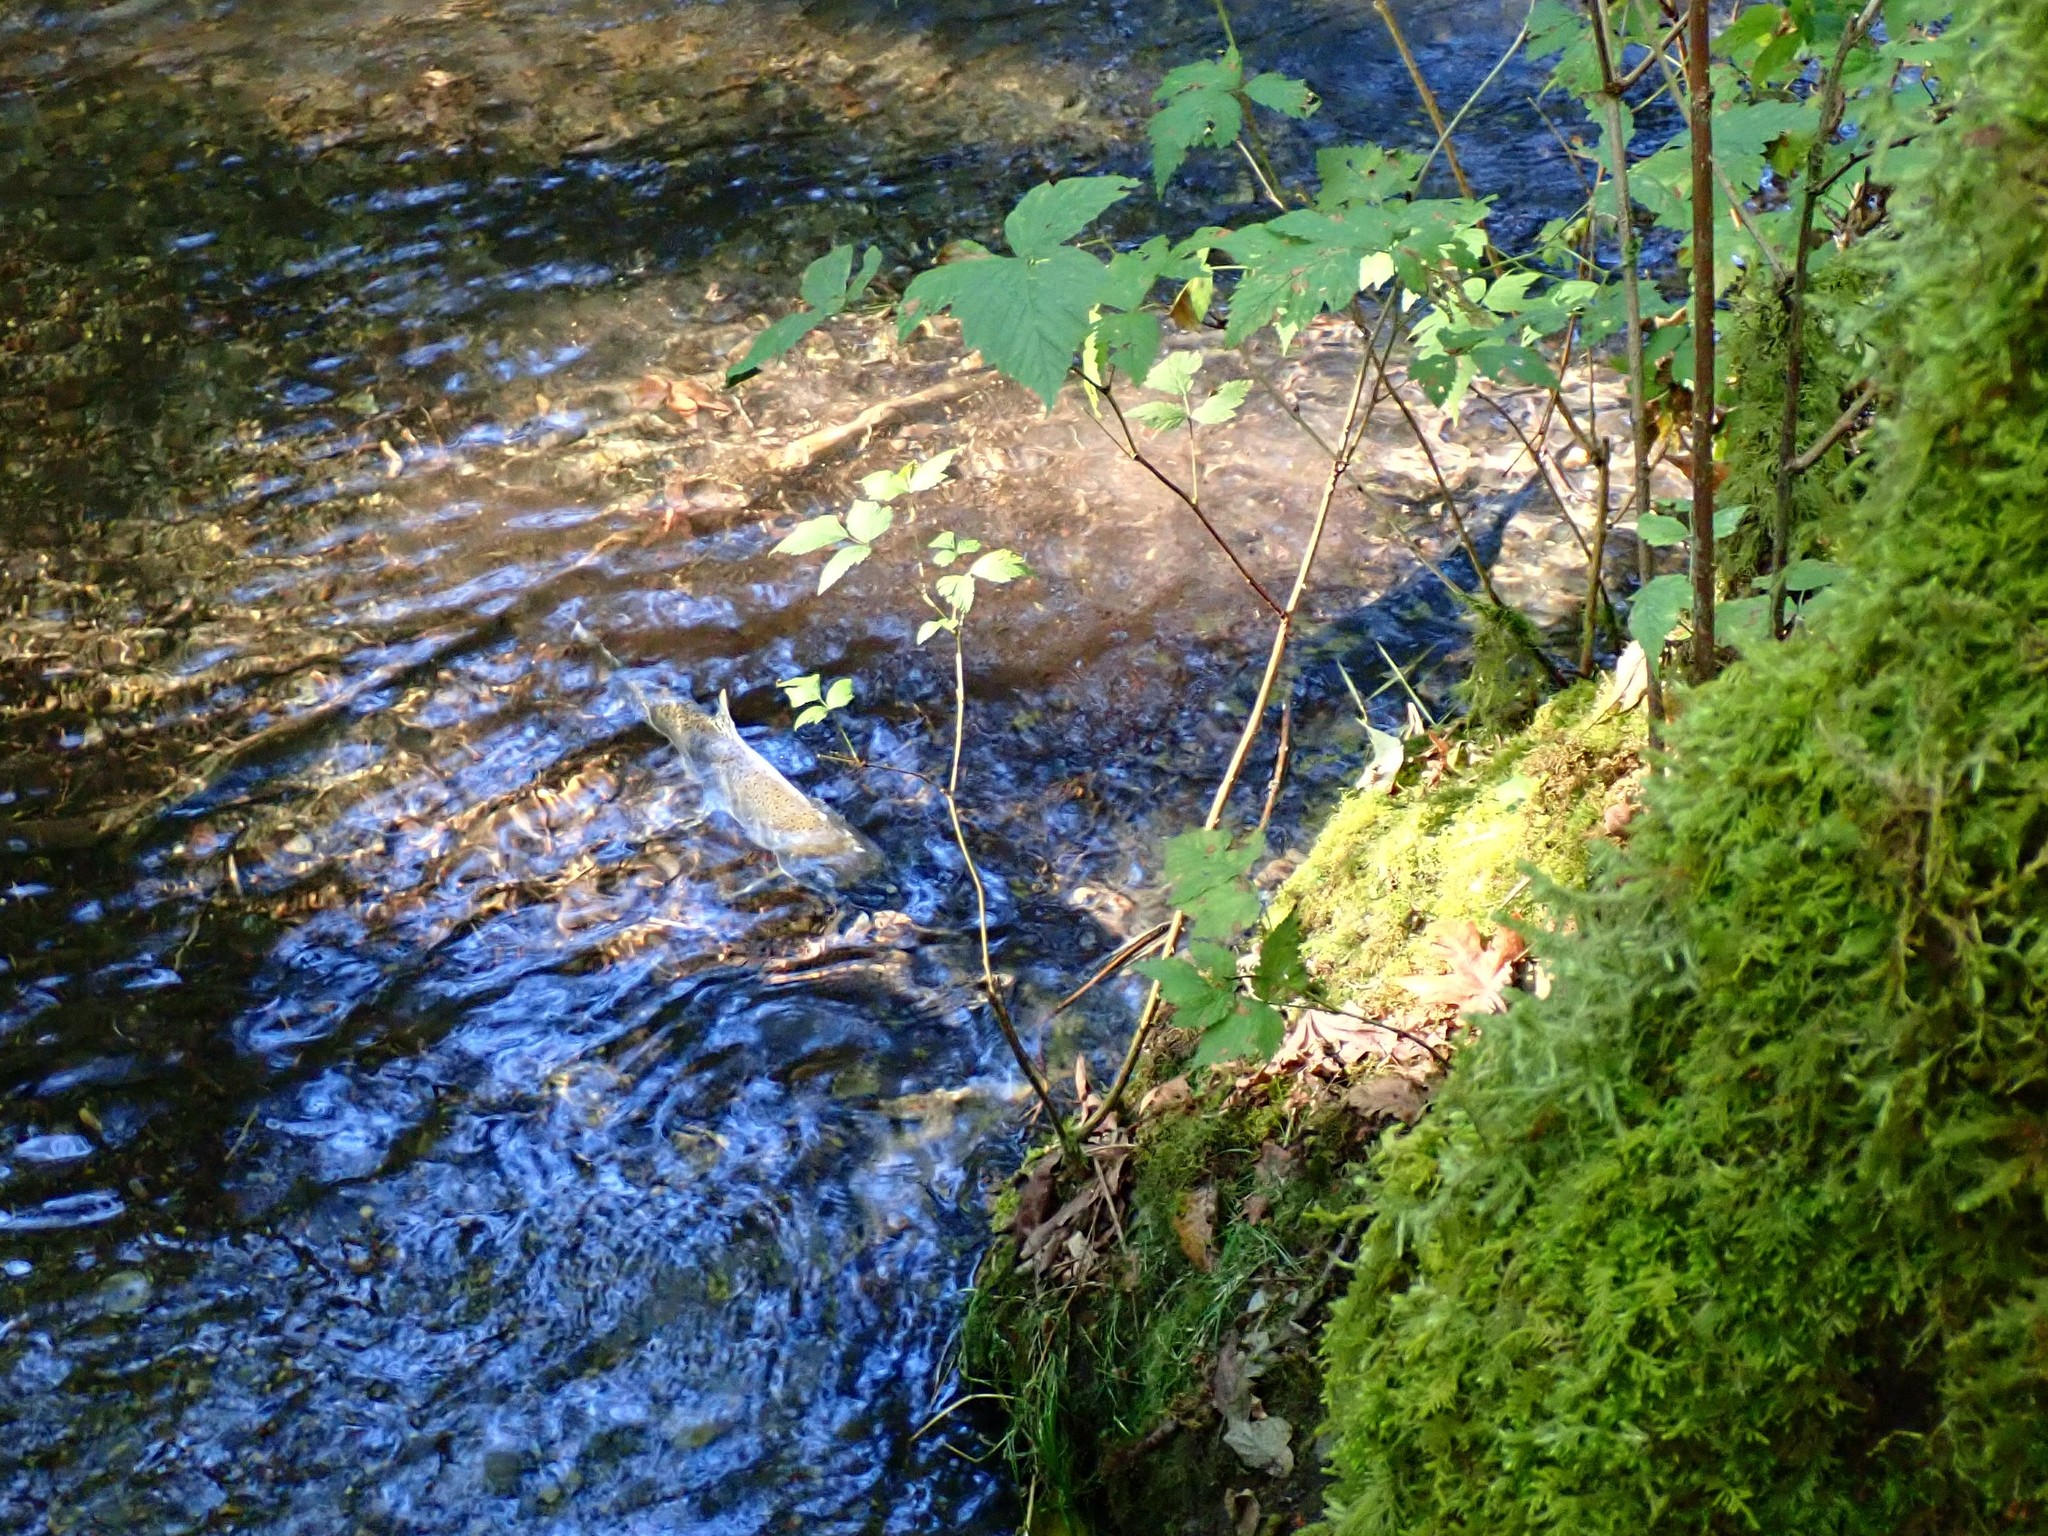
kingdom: Animalia
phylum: Chordata
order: Salmoniformes
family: Salmonidae
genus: Oncorhynchus
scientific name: Oncorhynchus gorbuscha
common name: Humpback salmon
